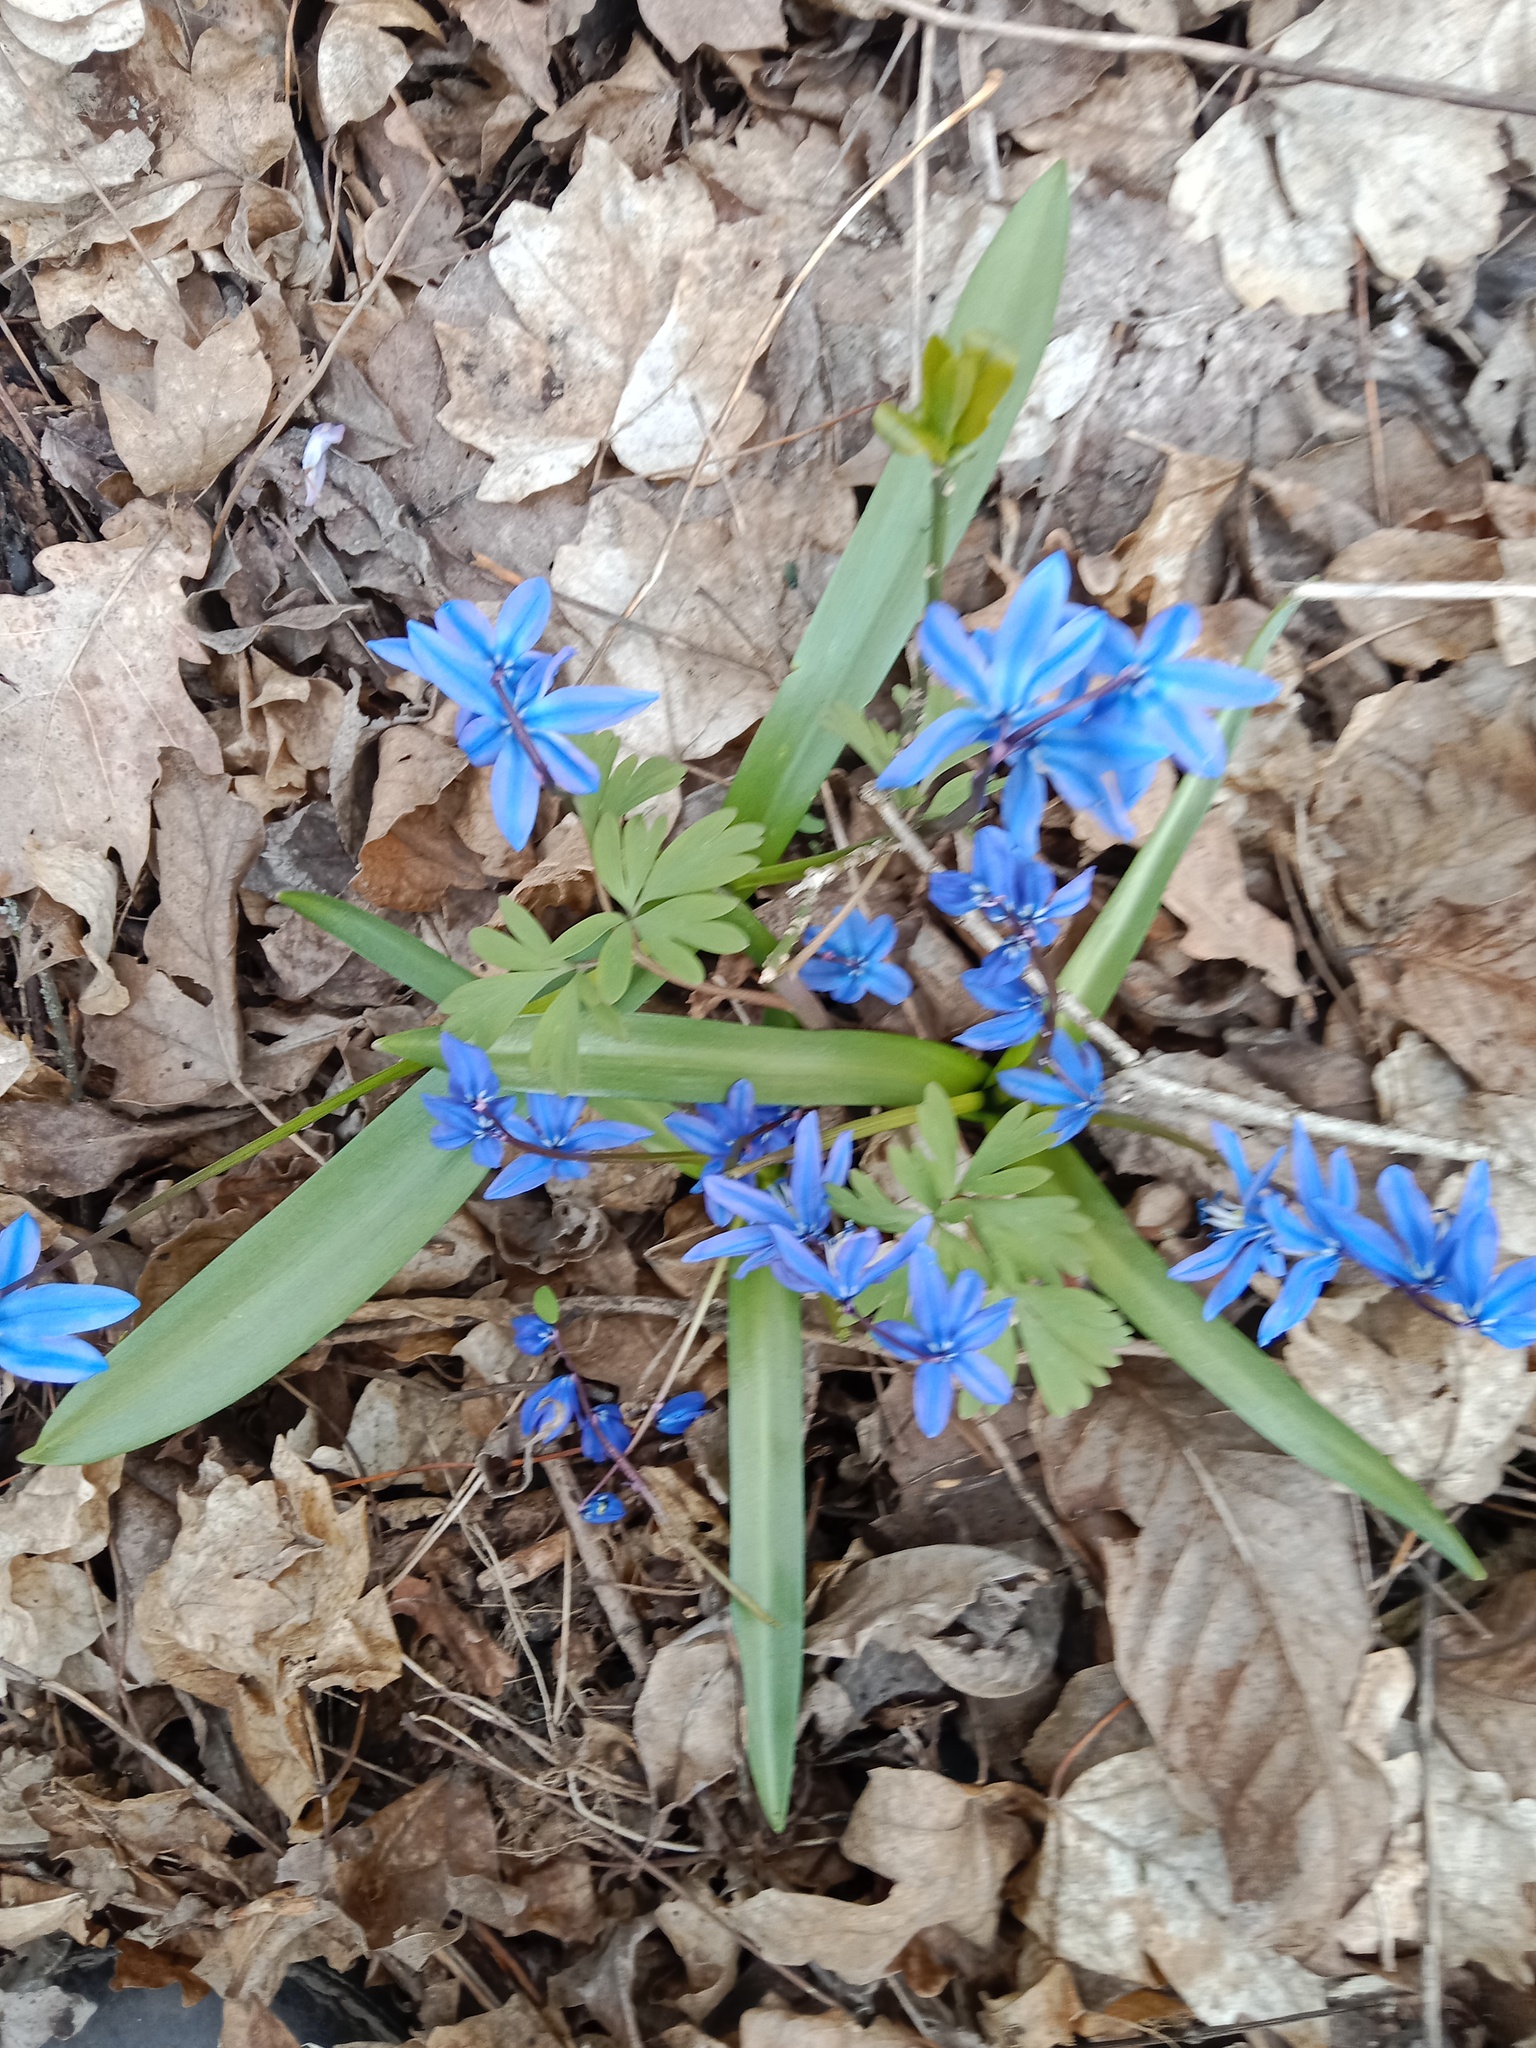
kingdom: Plantae
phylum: Tracheophyta
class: Liliopsida
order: Asparagales
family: Asparagaceae
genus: Scilla
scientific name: Scilla siberica
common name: Siberian squill
